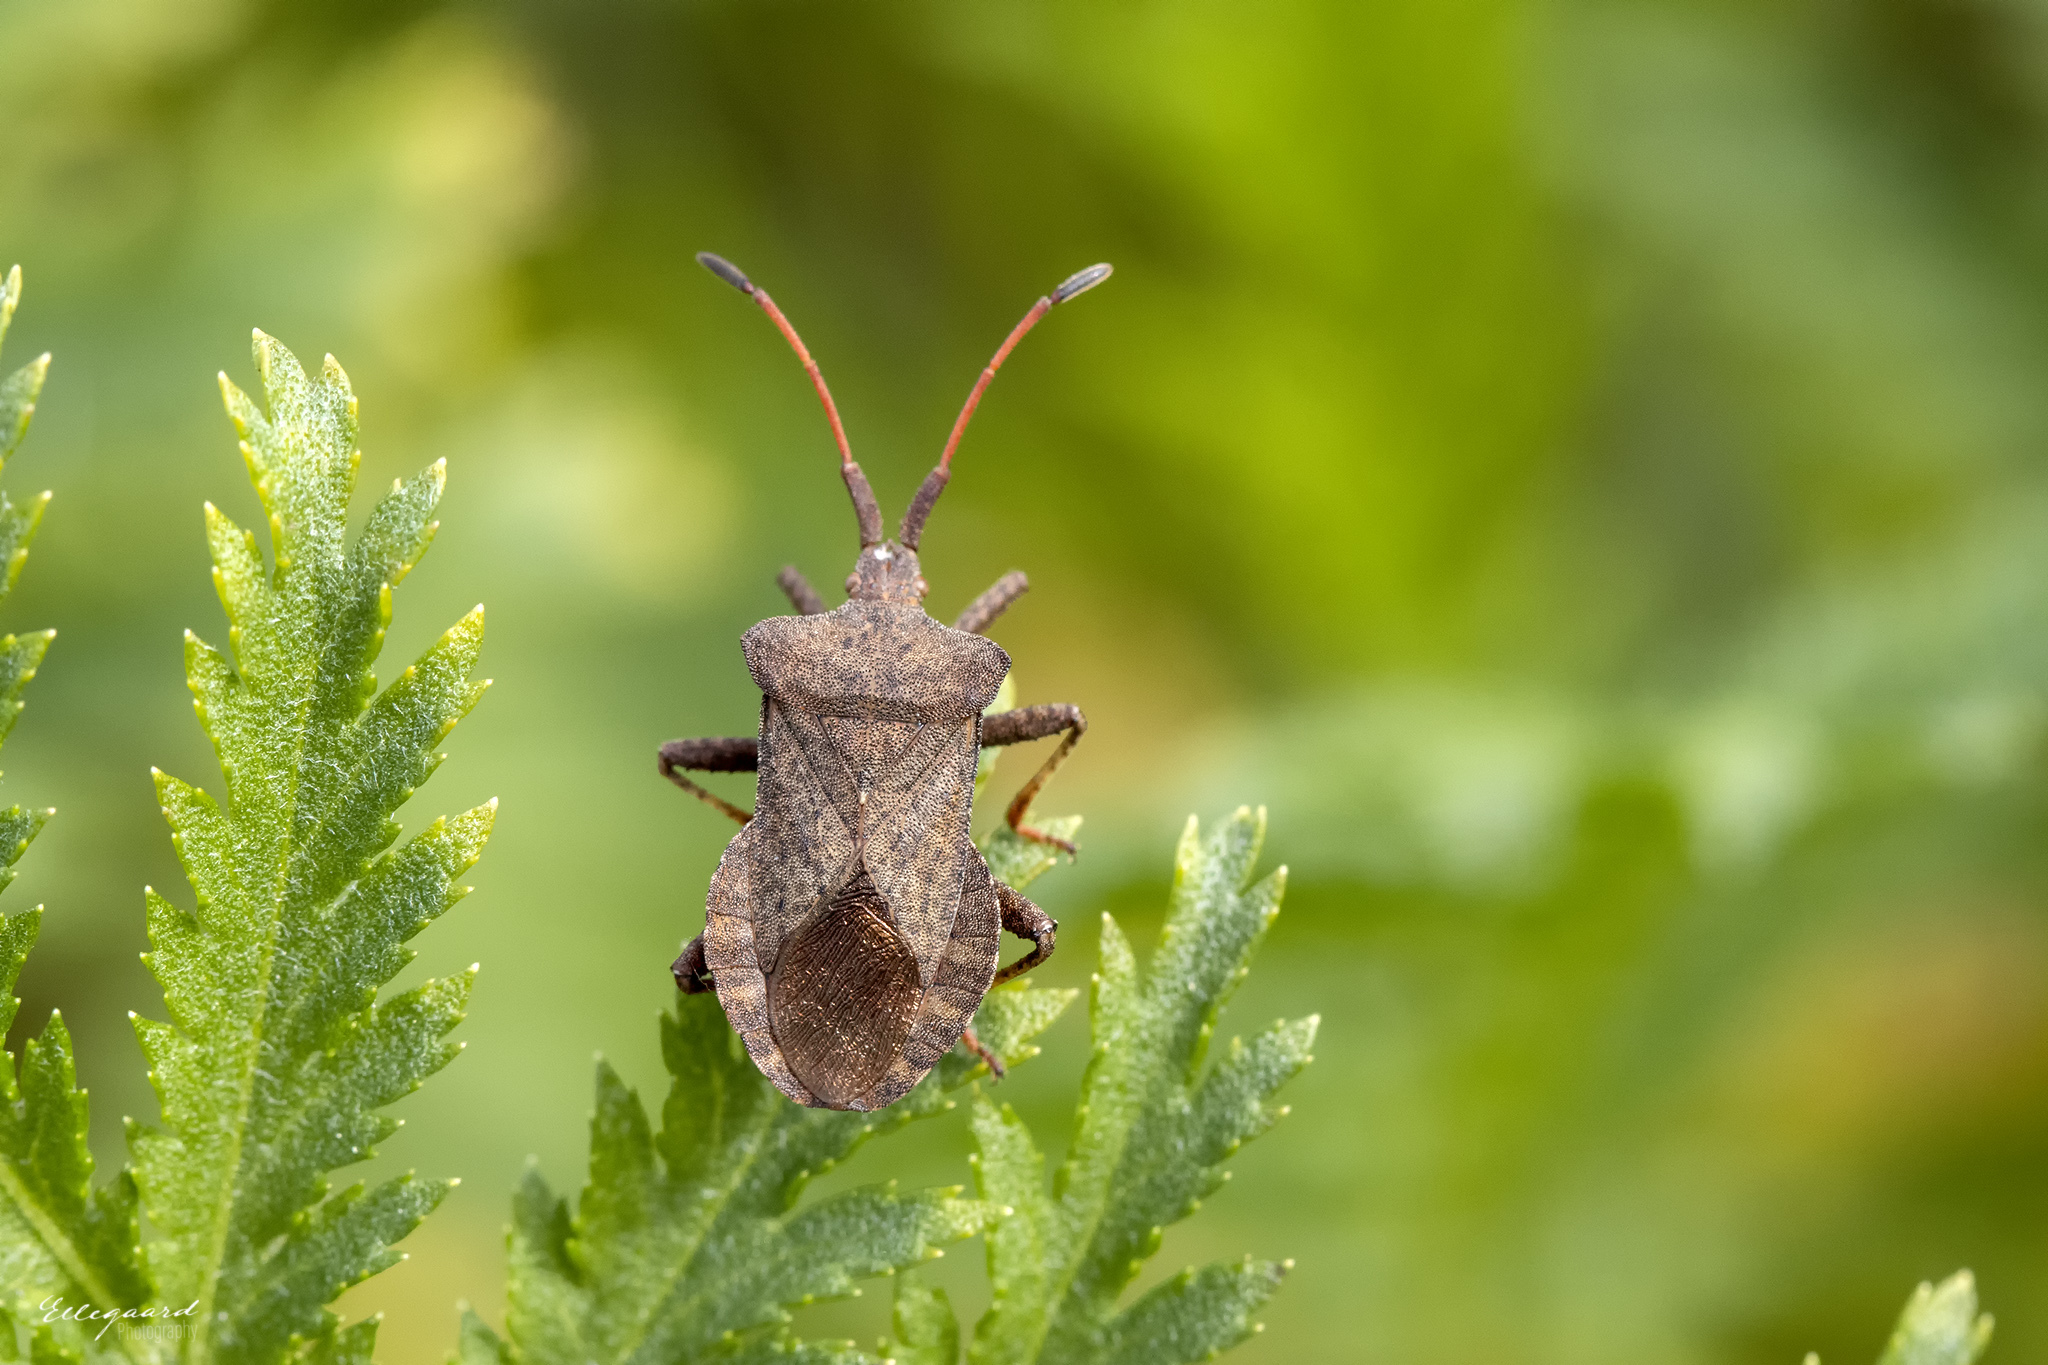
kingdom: Animalia
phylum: Arthropoda
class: Insecta
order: Hemiptera
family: Coreidae
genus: Coreus
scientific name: Coreus marginatus
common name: Dock bug
